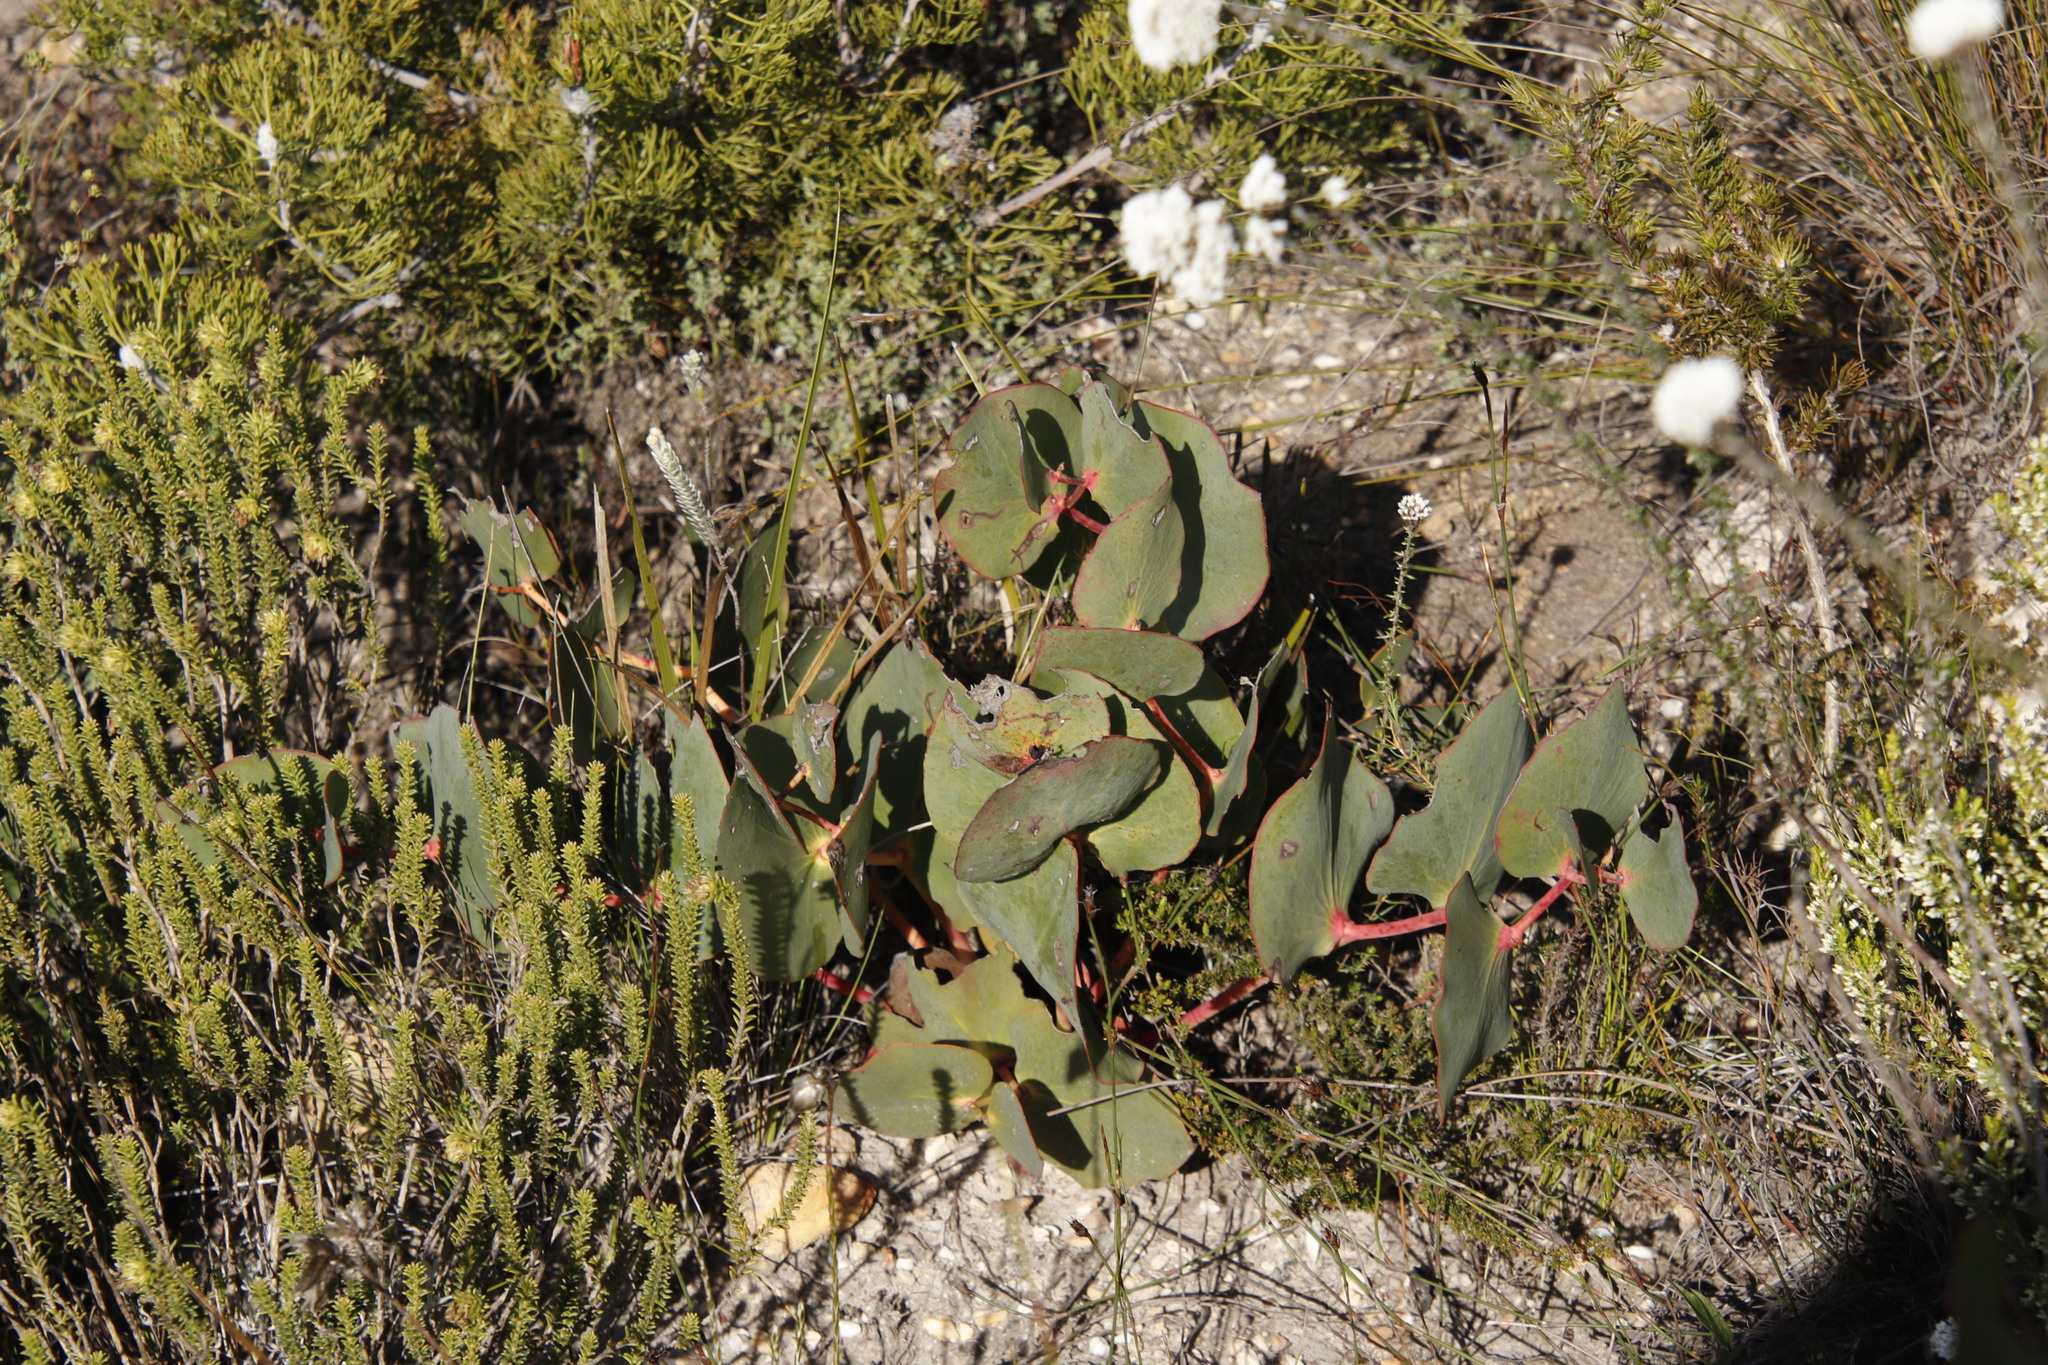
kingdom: Plantae
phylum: Tracheophyta
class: Magnoliopsida
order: Proteales
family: Proteaceae
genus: Protea
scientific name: Protea cordata
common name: Heart-leaf sugarbush
